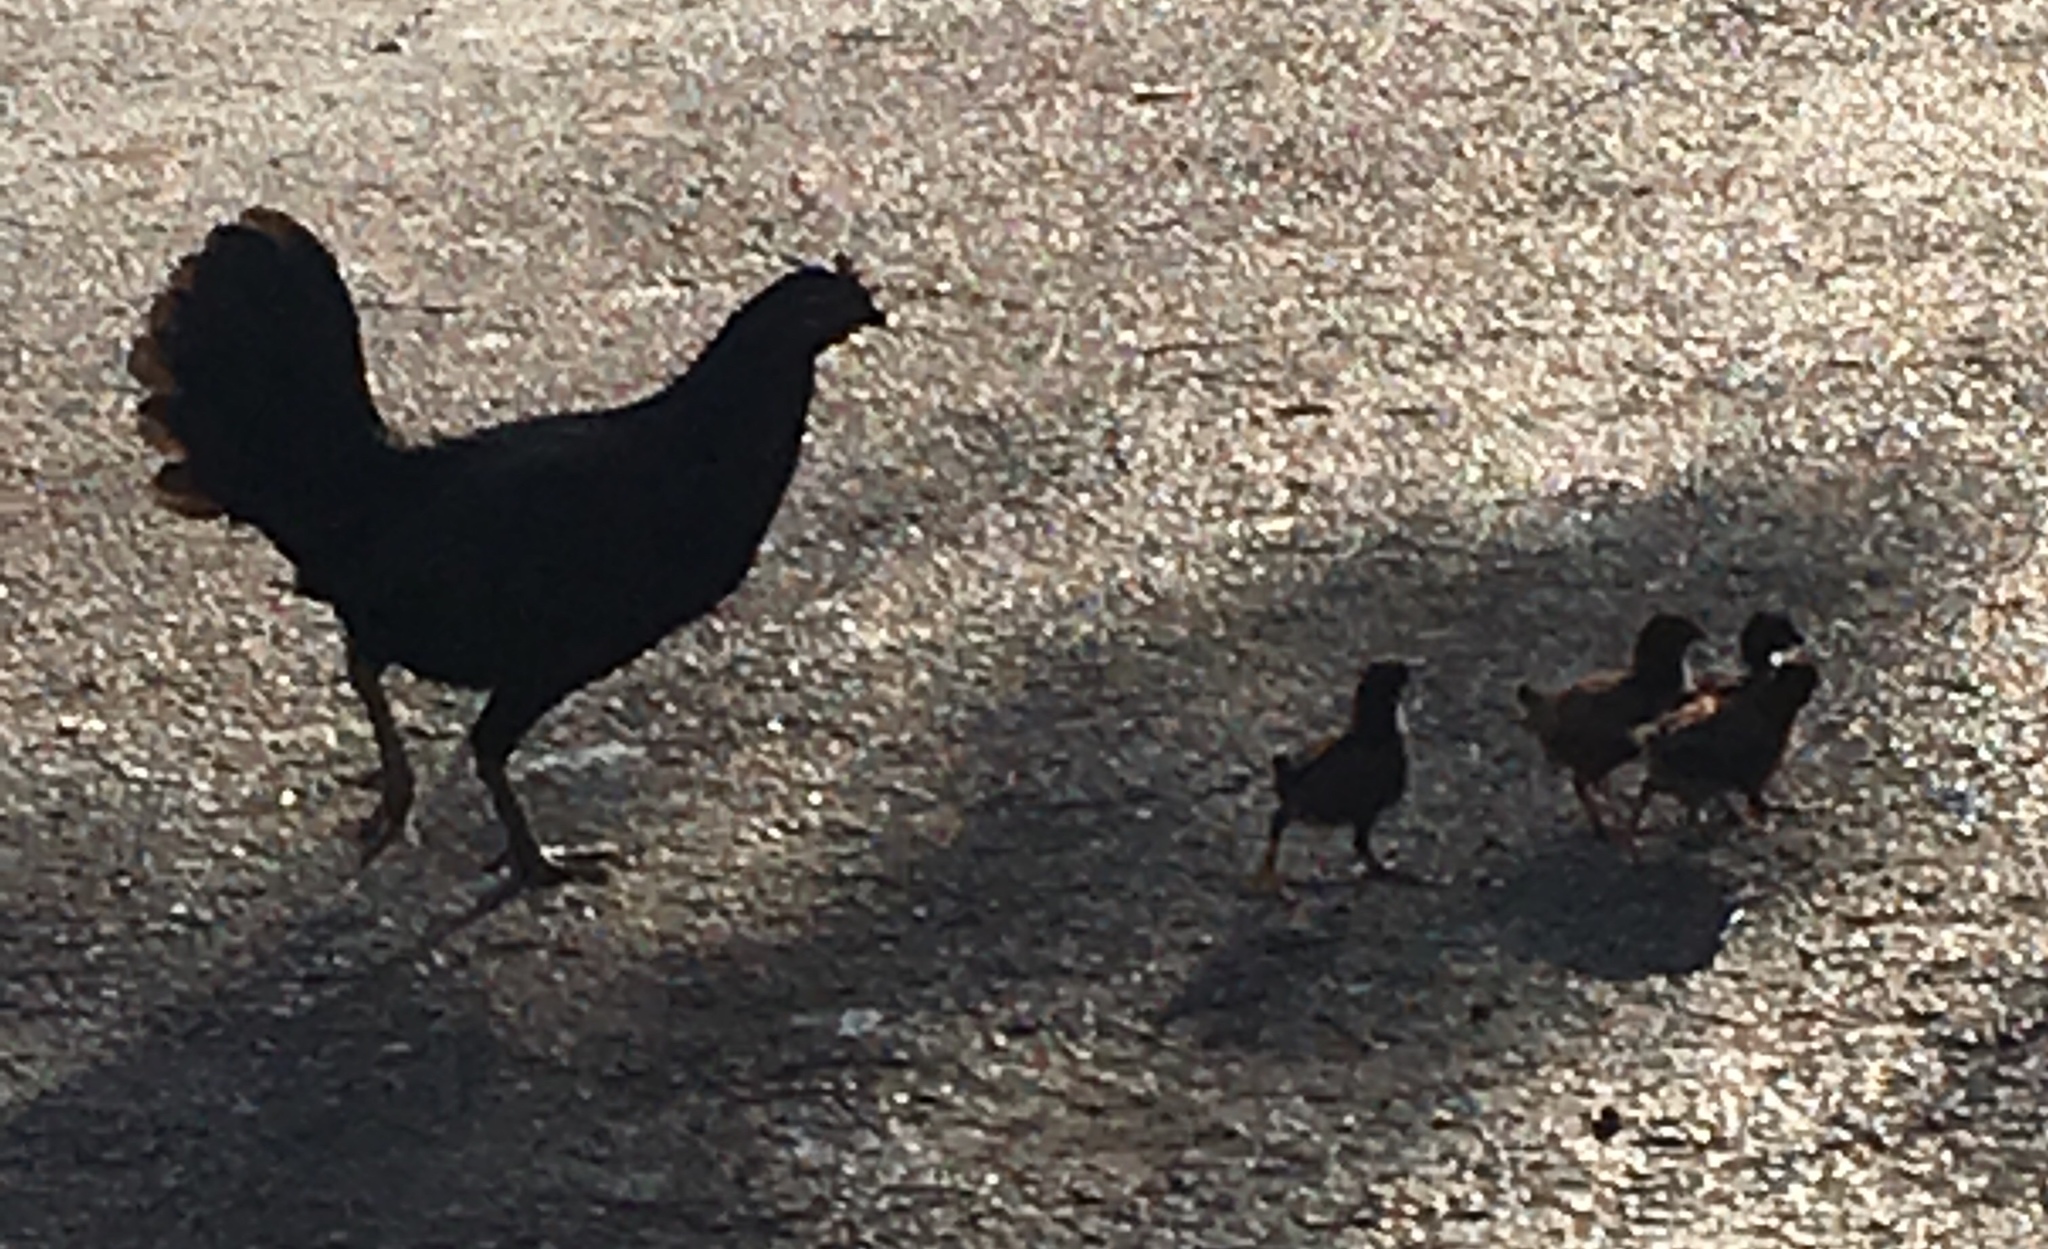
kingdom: Animalia
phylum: Chordata
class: Aves
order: Galliformes
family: Phasianidae
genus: Gallus
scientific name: Gallus gallus
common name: Red junglefowl
